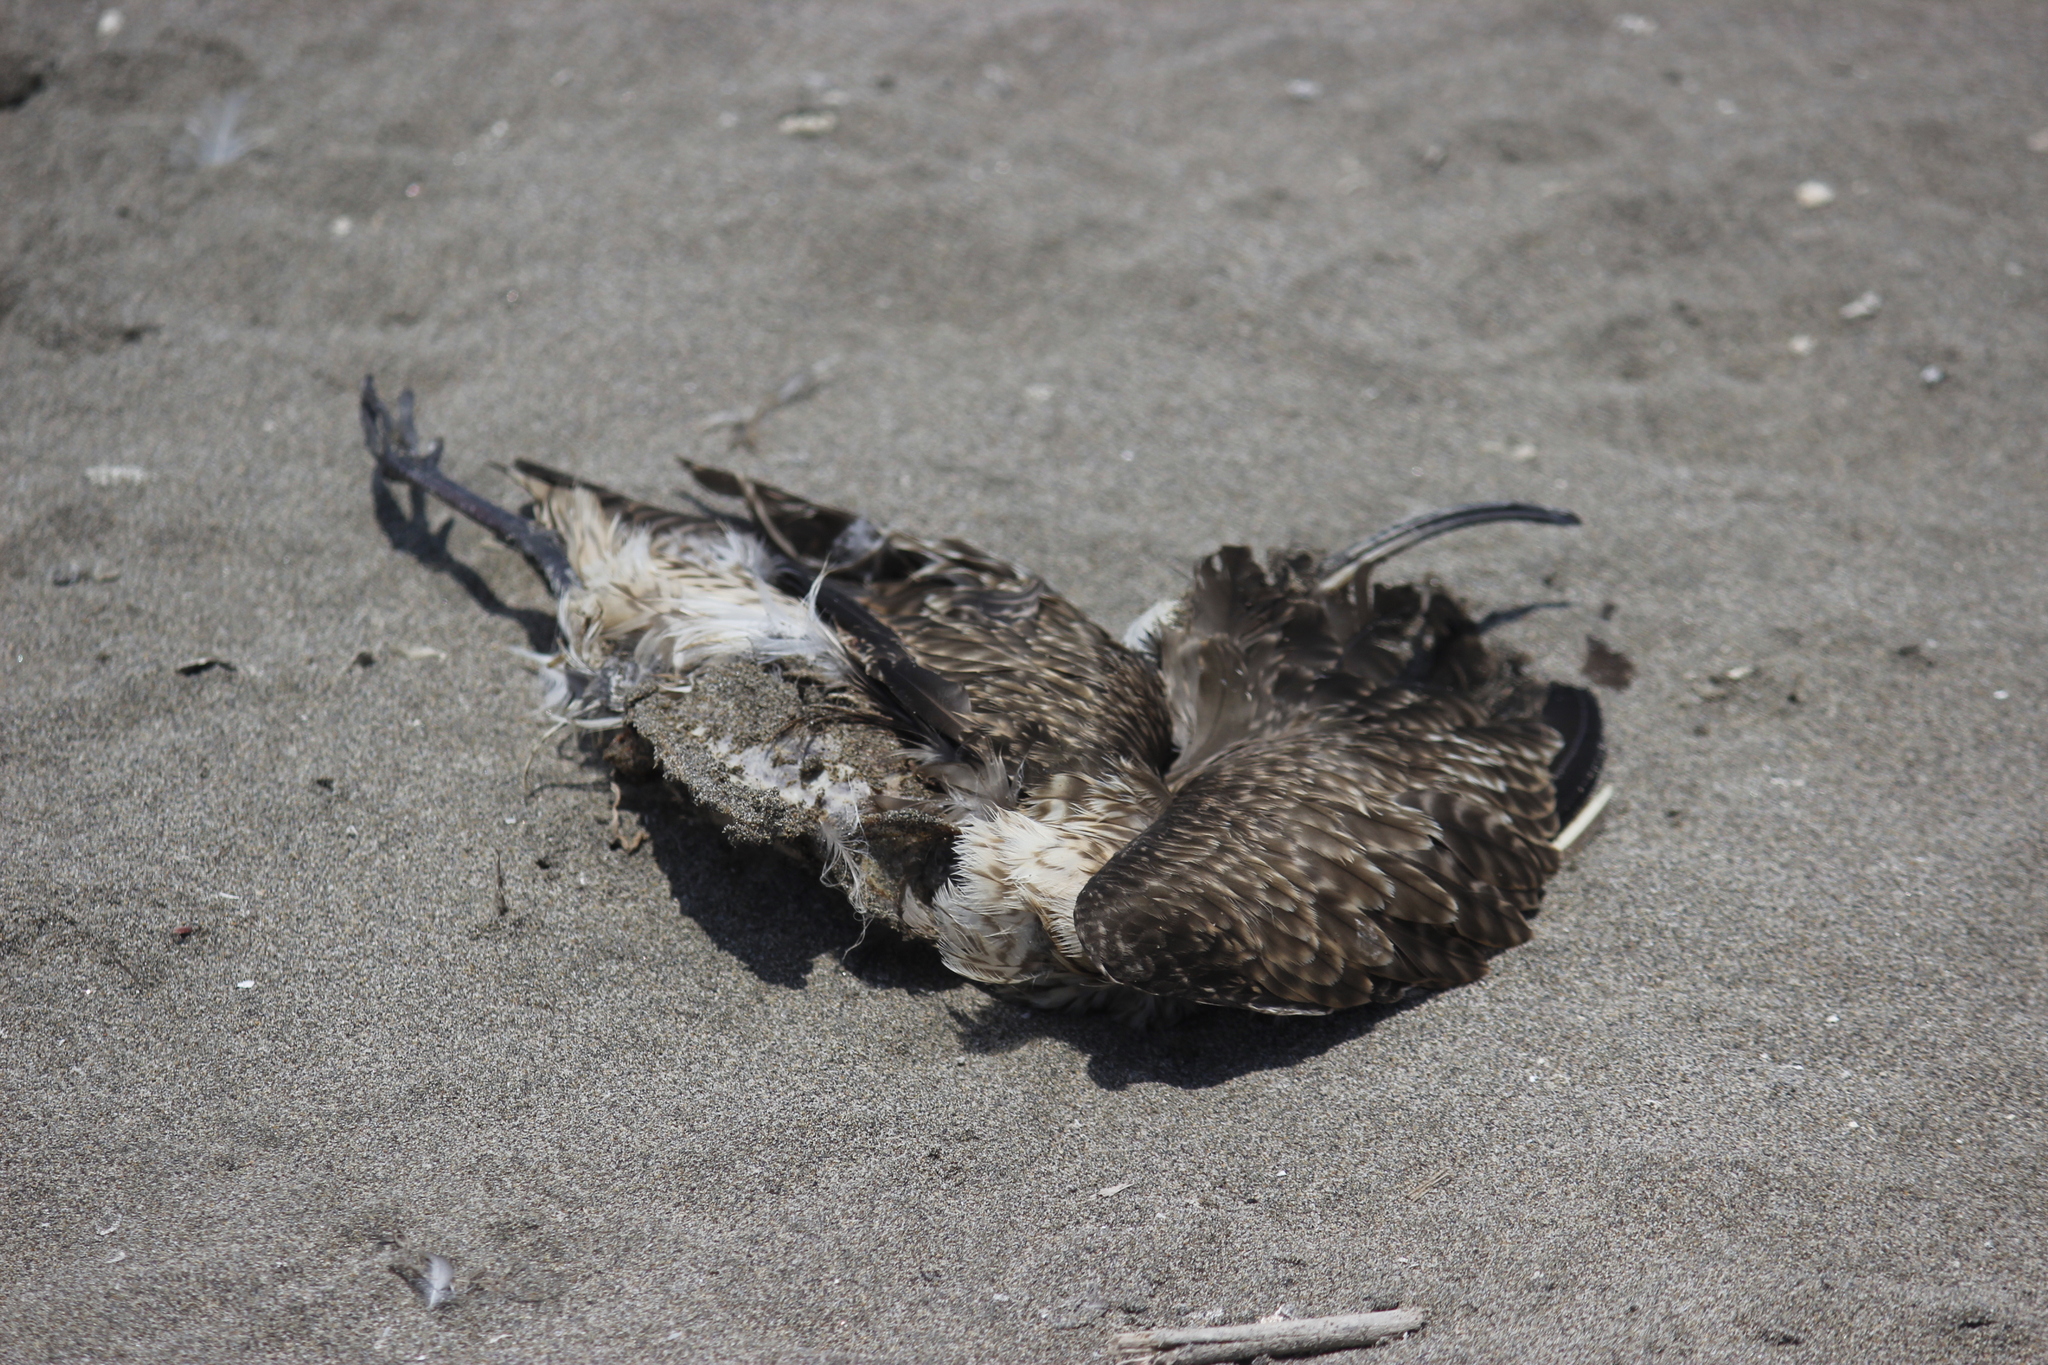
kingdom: Animalia
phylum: Chordata
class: Aves
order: Charadriiformes
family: Scolopacidae
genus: Numenius
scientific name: Numenius phaeopus
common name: Whimbrel
